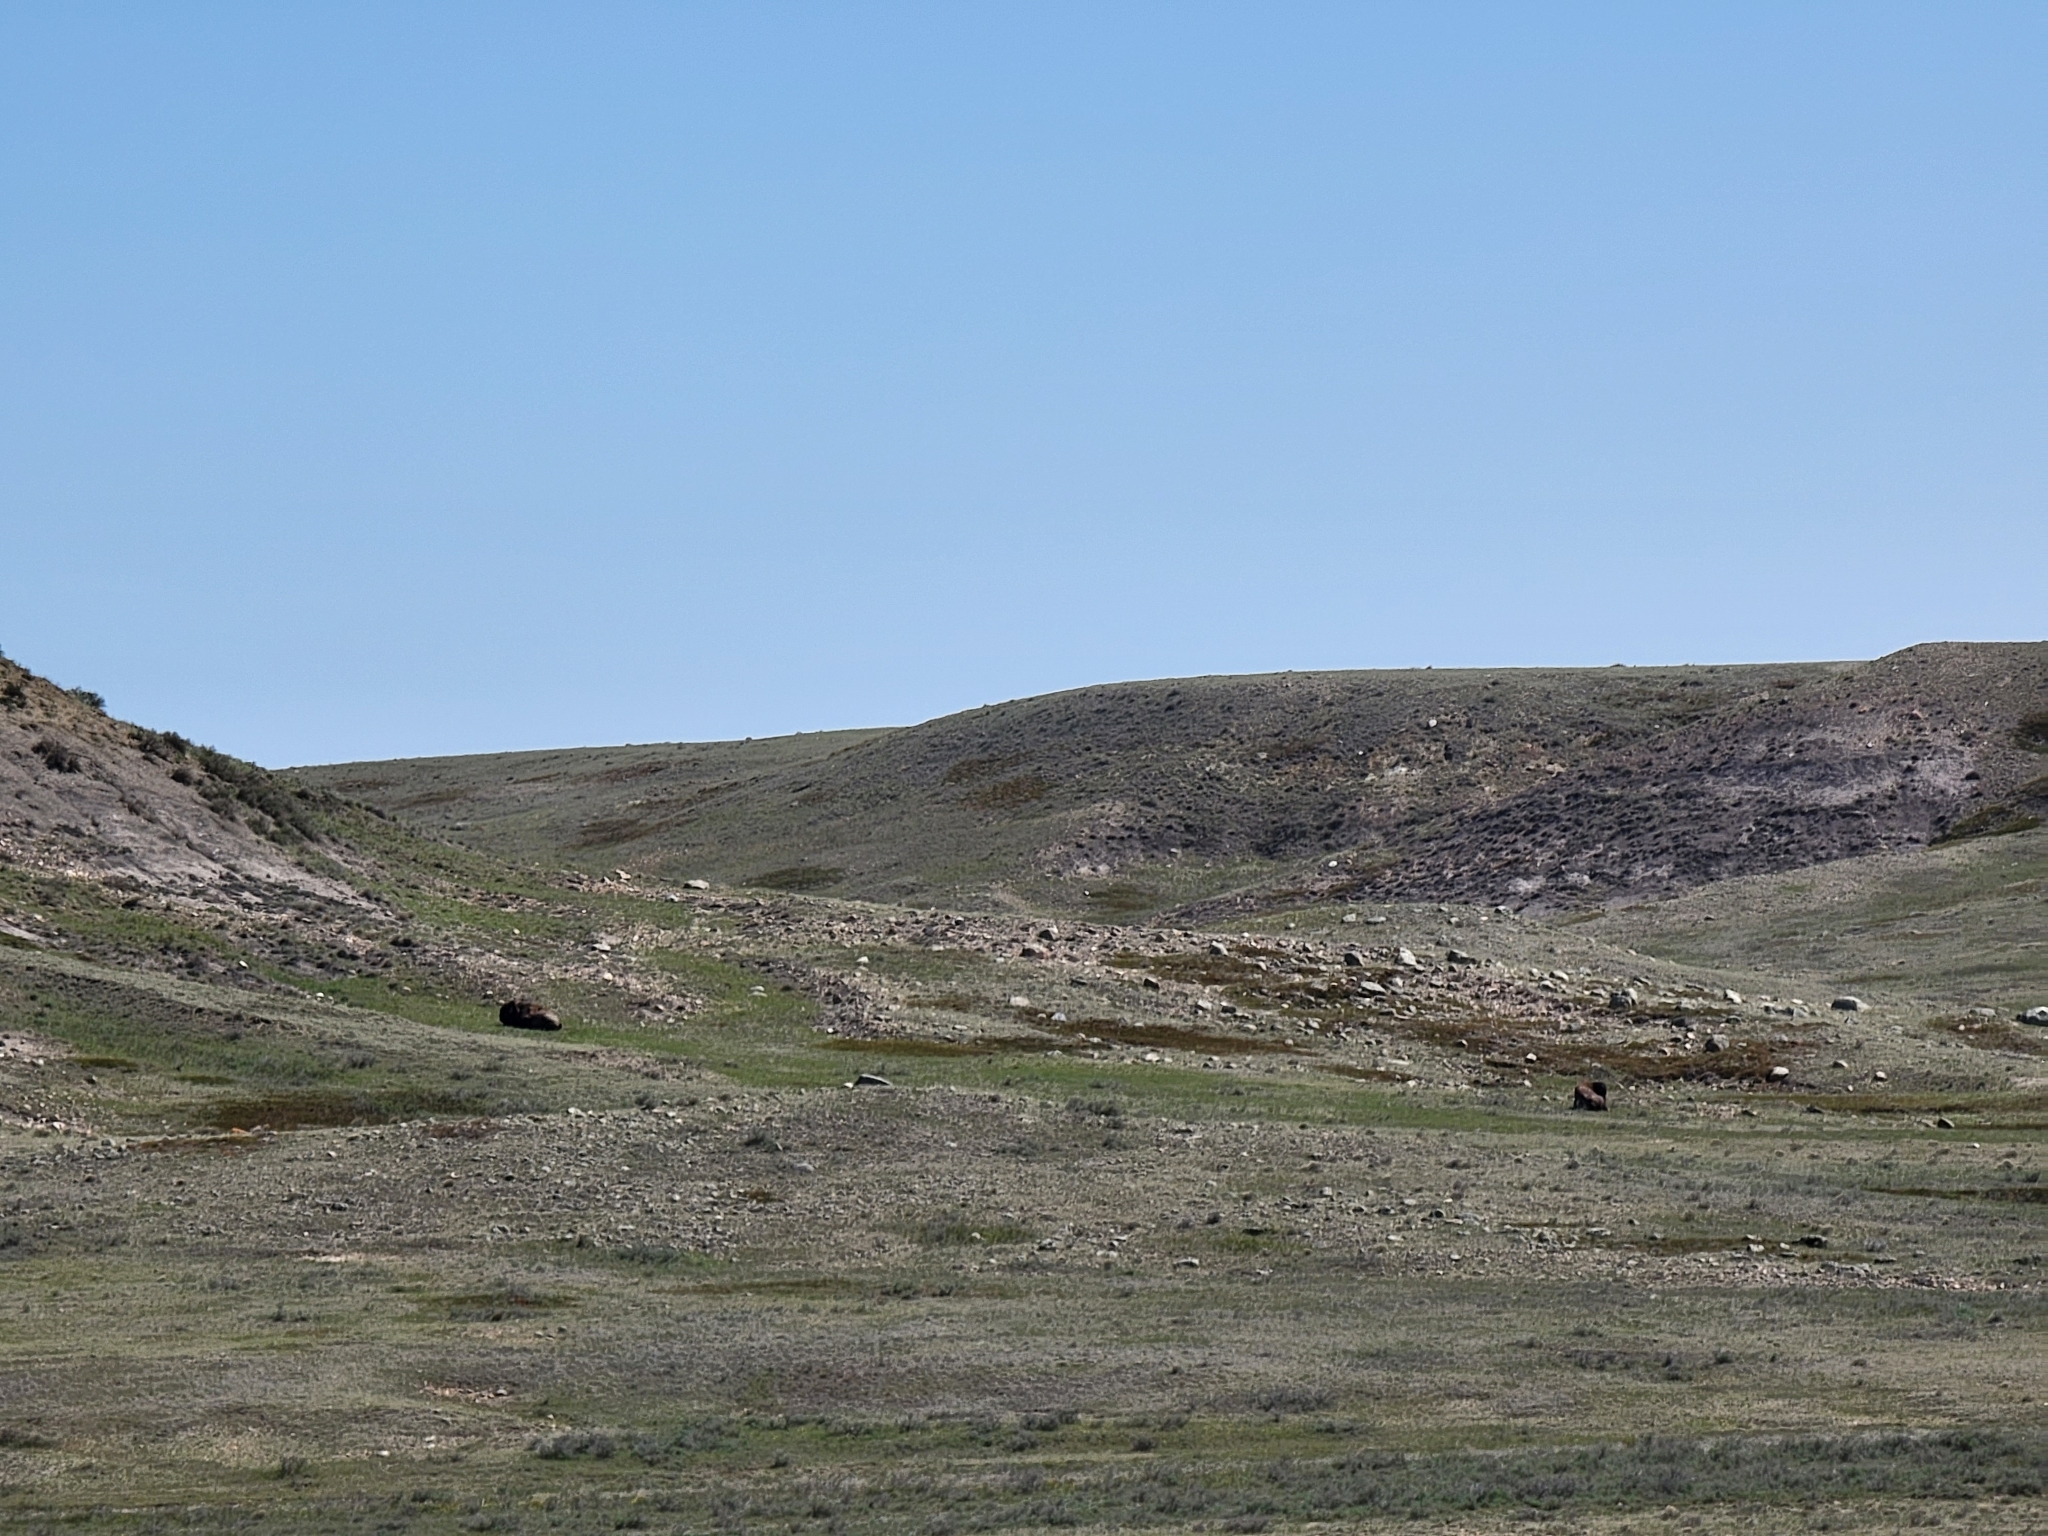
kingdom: Animalia
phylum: Chordata
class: Mammalia
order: Artiodactyla
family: Bovidae
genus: Bison
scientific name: Bison bison
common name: American bison
